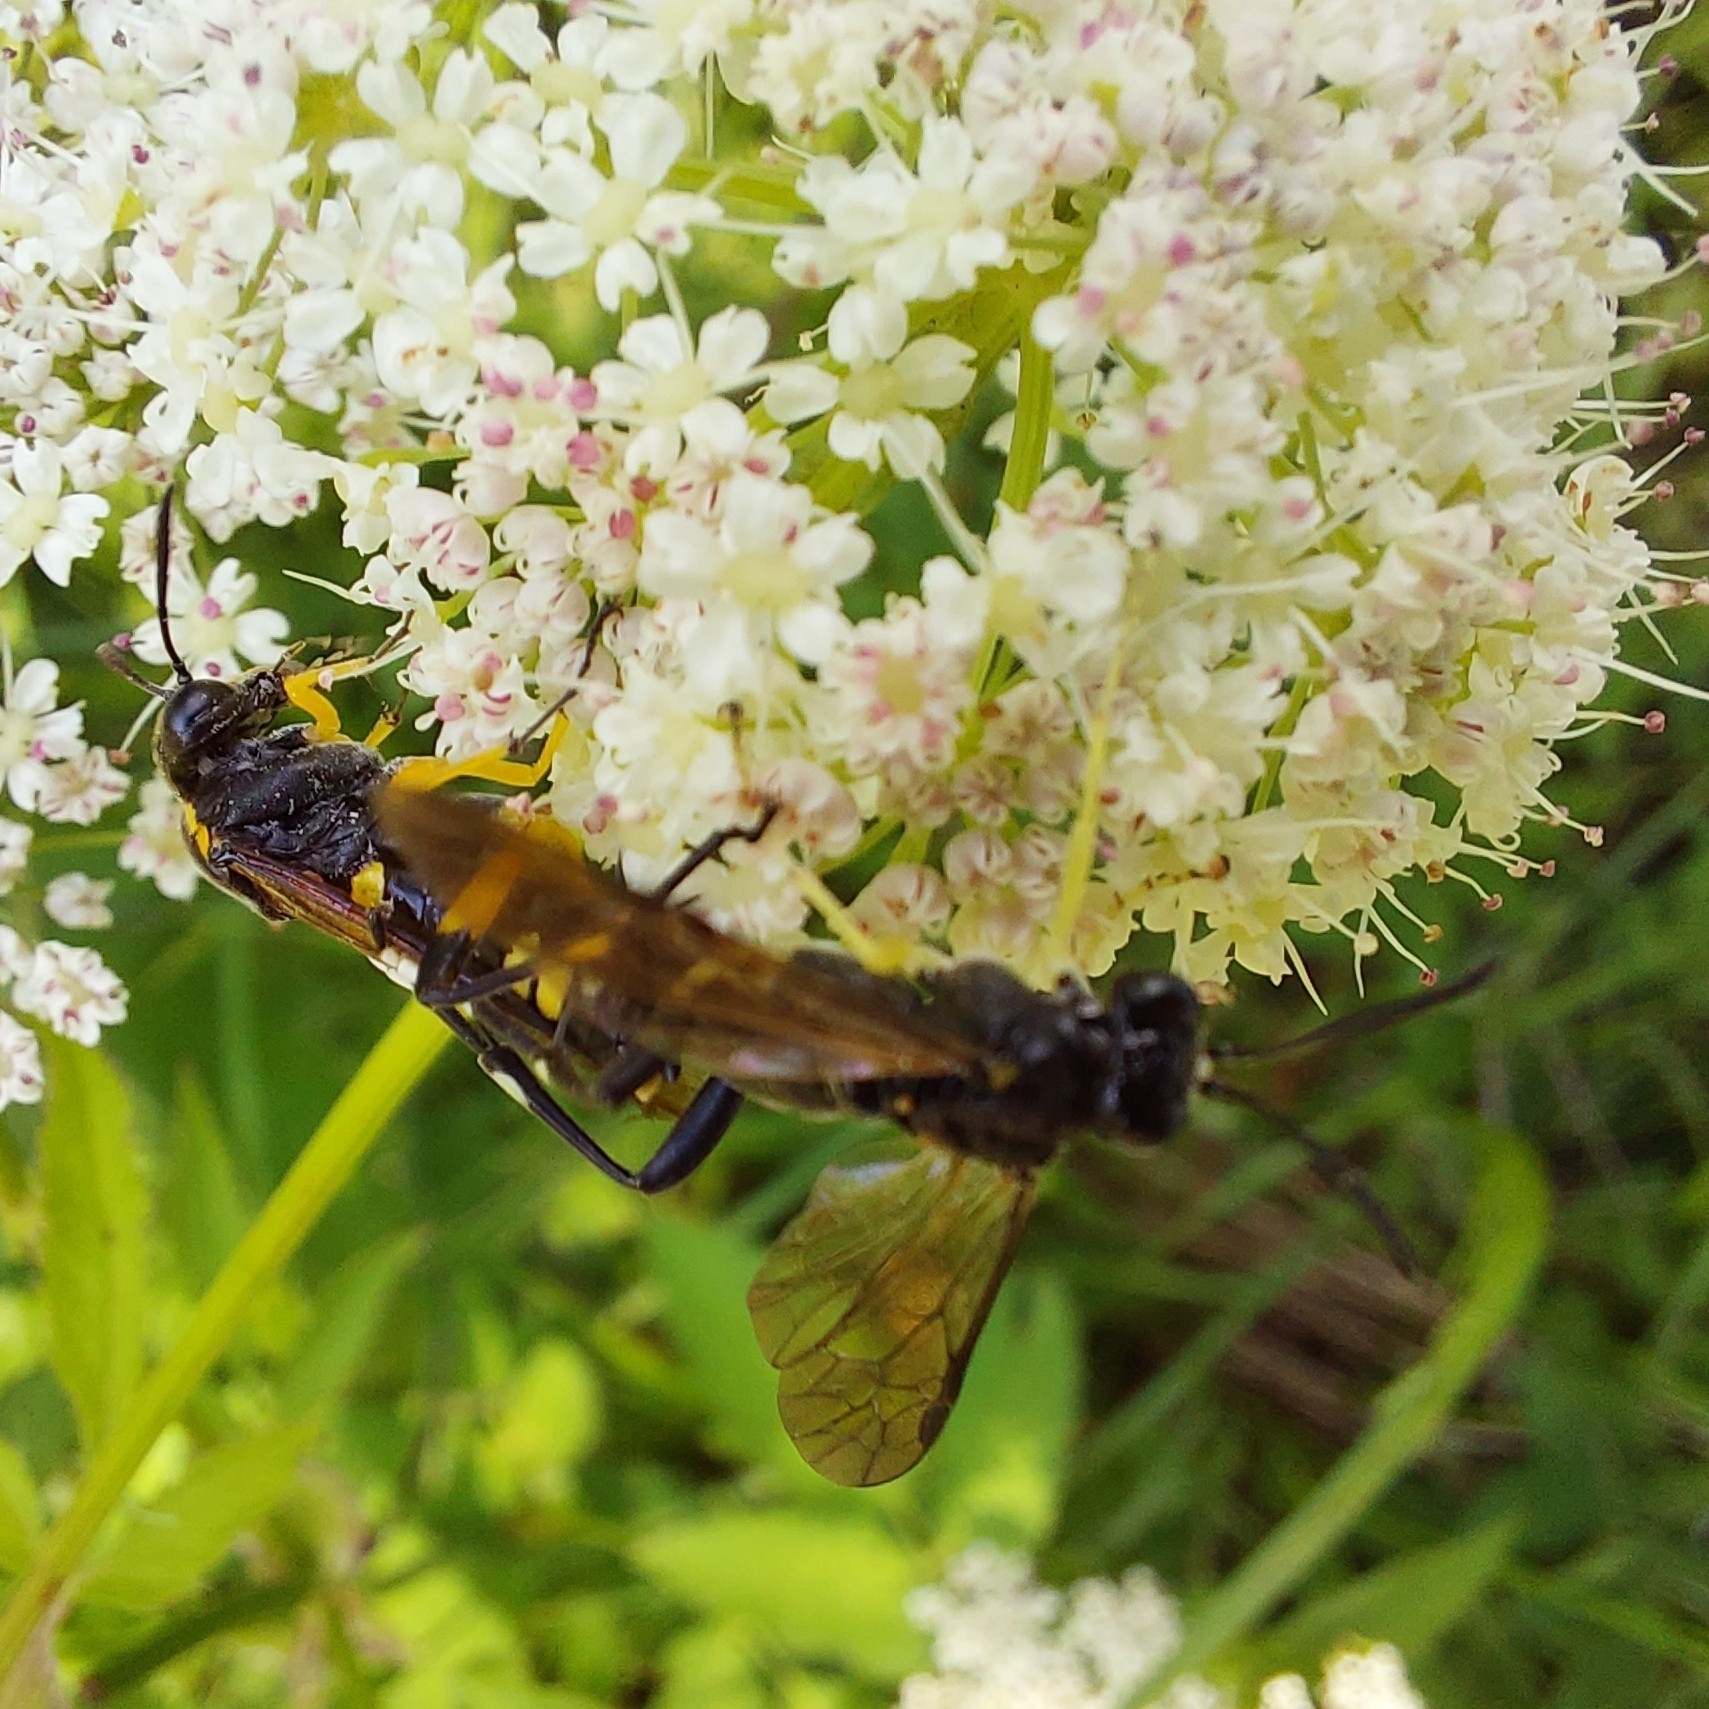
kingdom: Animalia
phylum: Arthropoda
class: Insecta
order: Hymenoptera
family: Tenthredinidae
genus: Macrophya
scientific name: Macrophya montana
